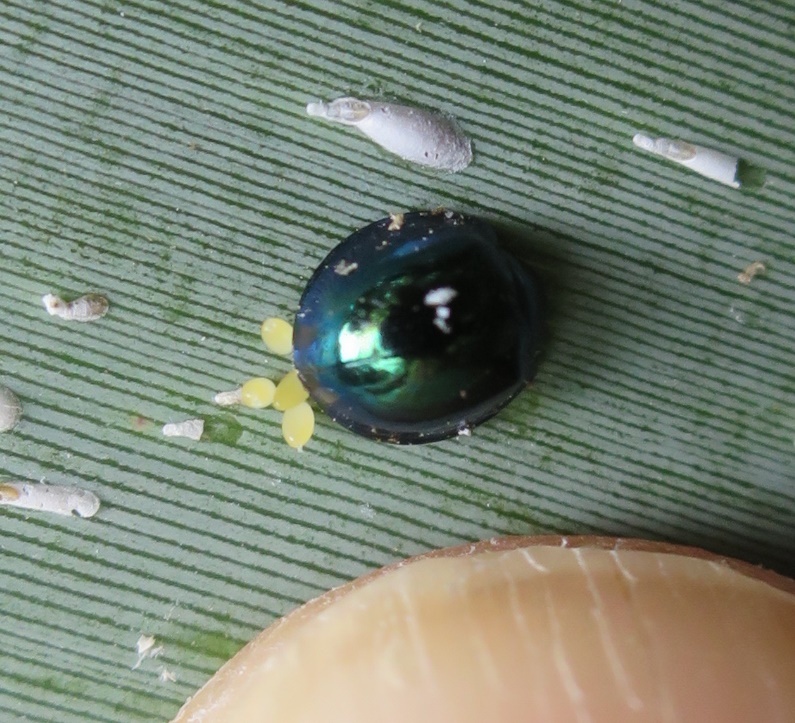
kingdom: Animalia
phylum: Arthropoda
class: Insecta
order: Coleoptera
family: Coccinellidae
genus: Halmus
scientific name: Halmus chalybeus
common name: Steel blue ladybird beetle
